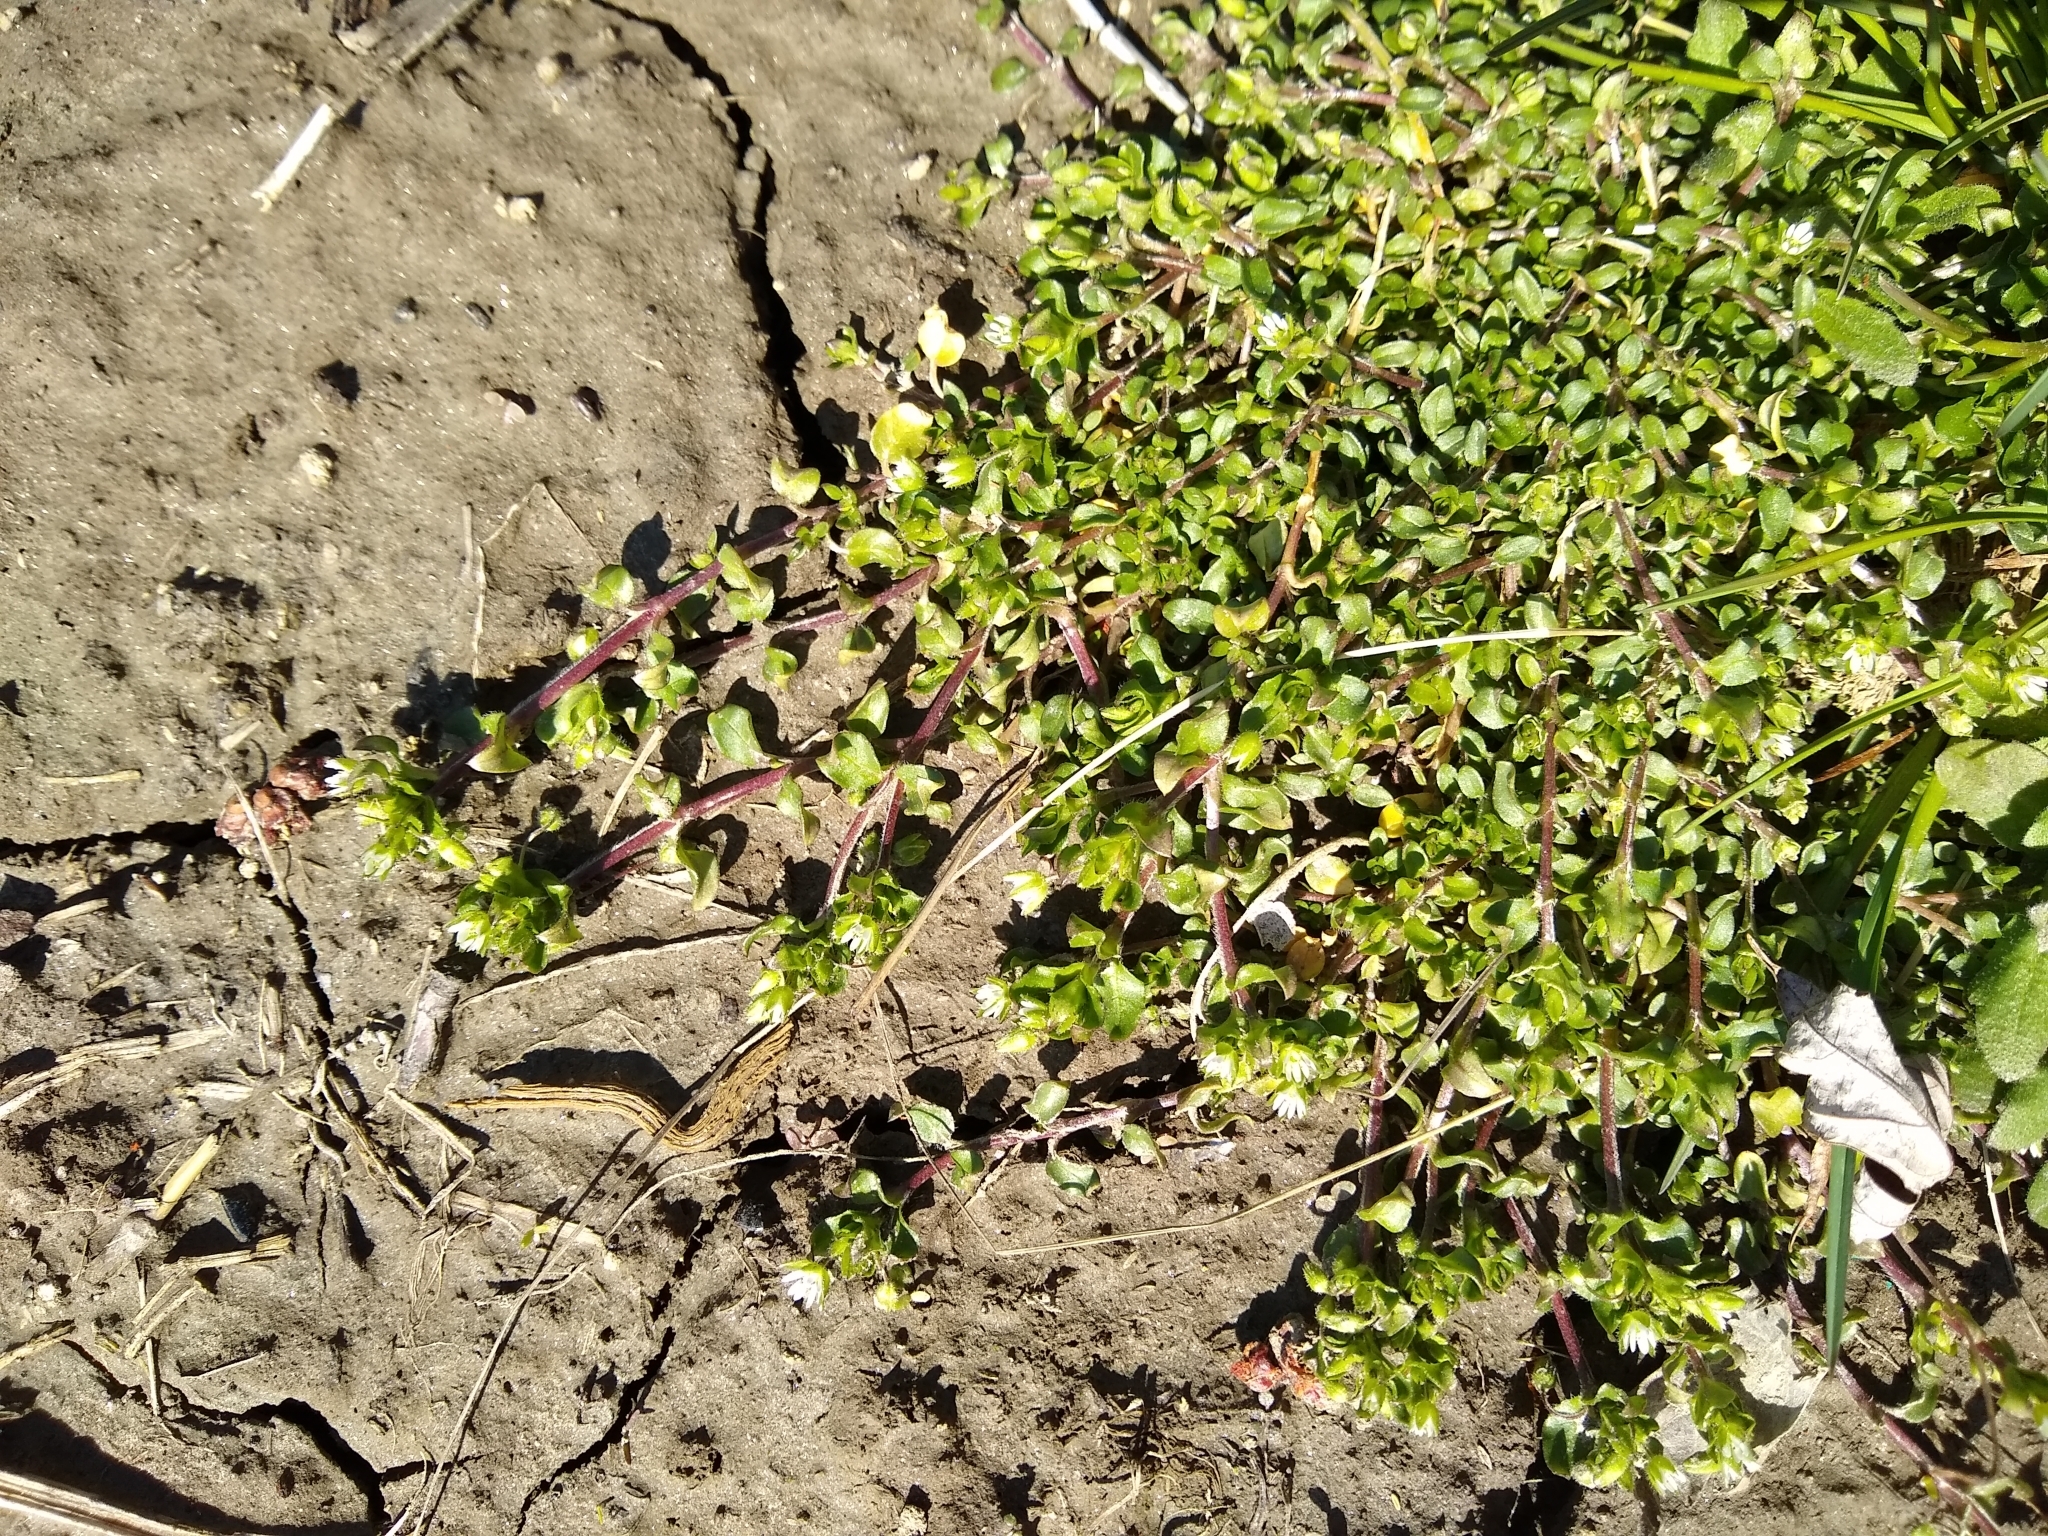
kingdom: Plantae
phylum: Tracheophyta
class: Magnoliopsida
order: Caryophyllales
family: Caryophyllaceae
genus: Stellaria
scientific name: Stellaria media
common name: Common chickweed
